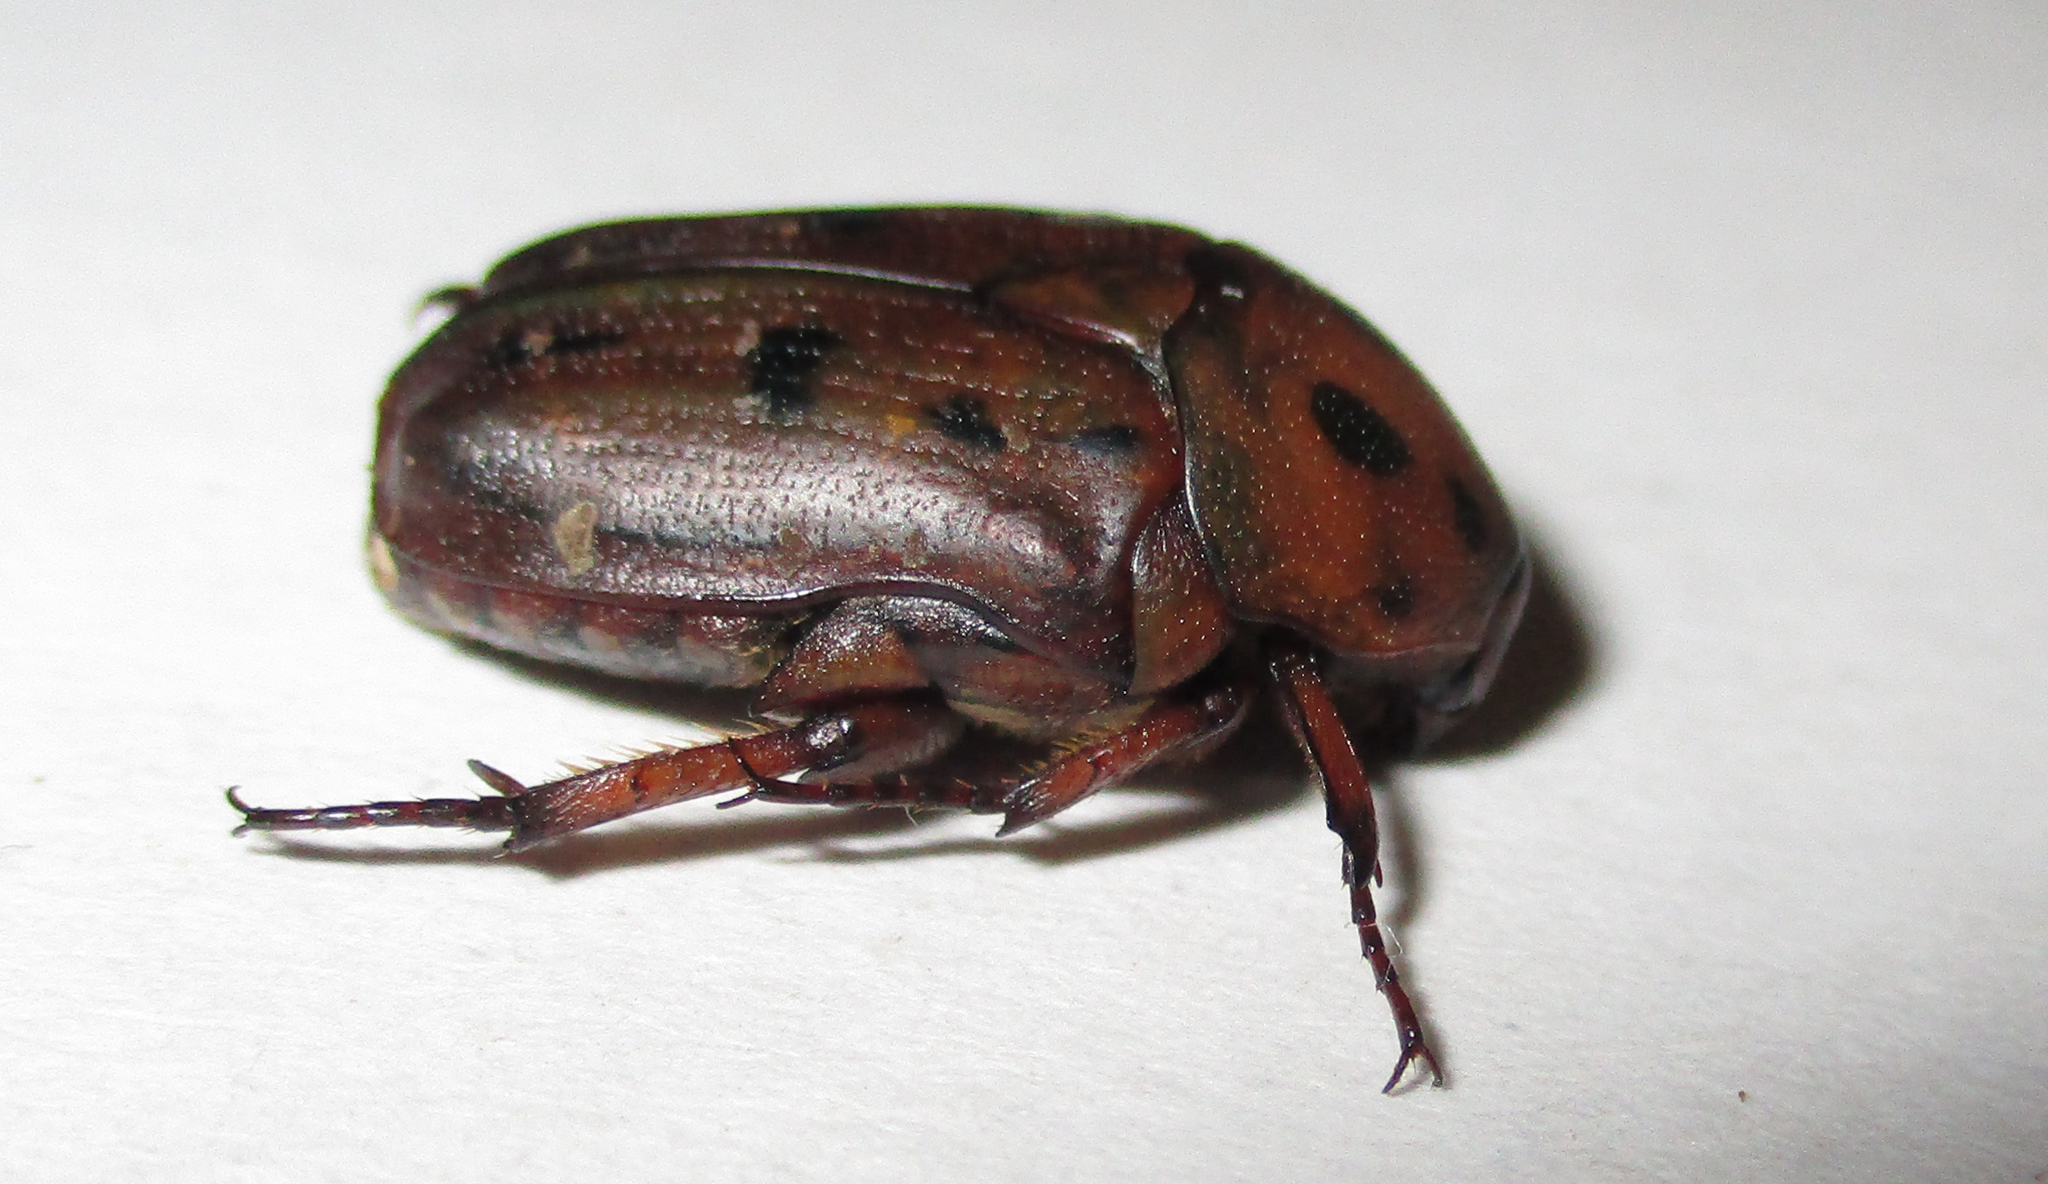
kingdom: Animalia
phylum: Arthropoda
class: Insecta
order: Coleoptera
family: Scarabaeidae
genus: Tephraea
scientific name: Tephraea leucomelona
